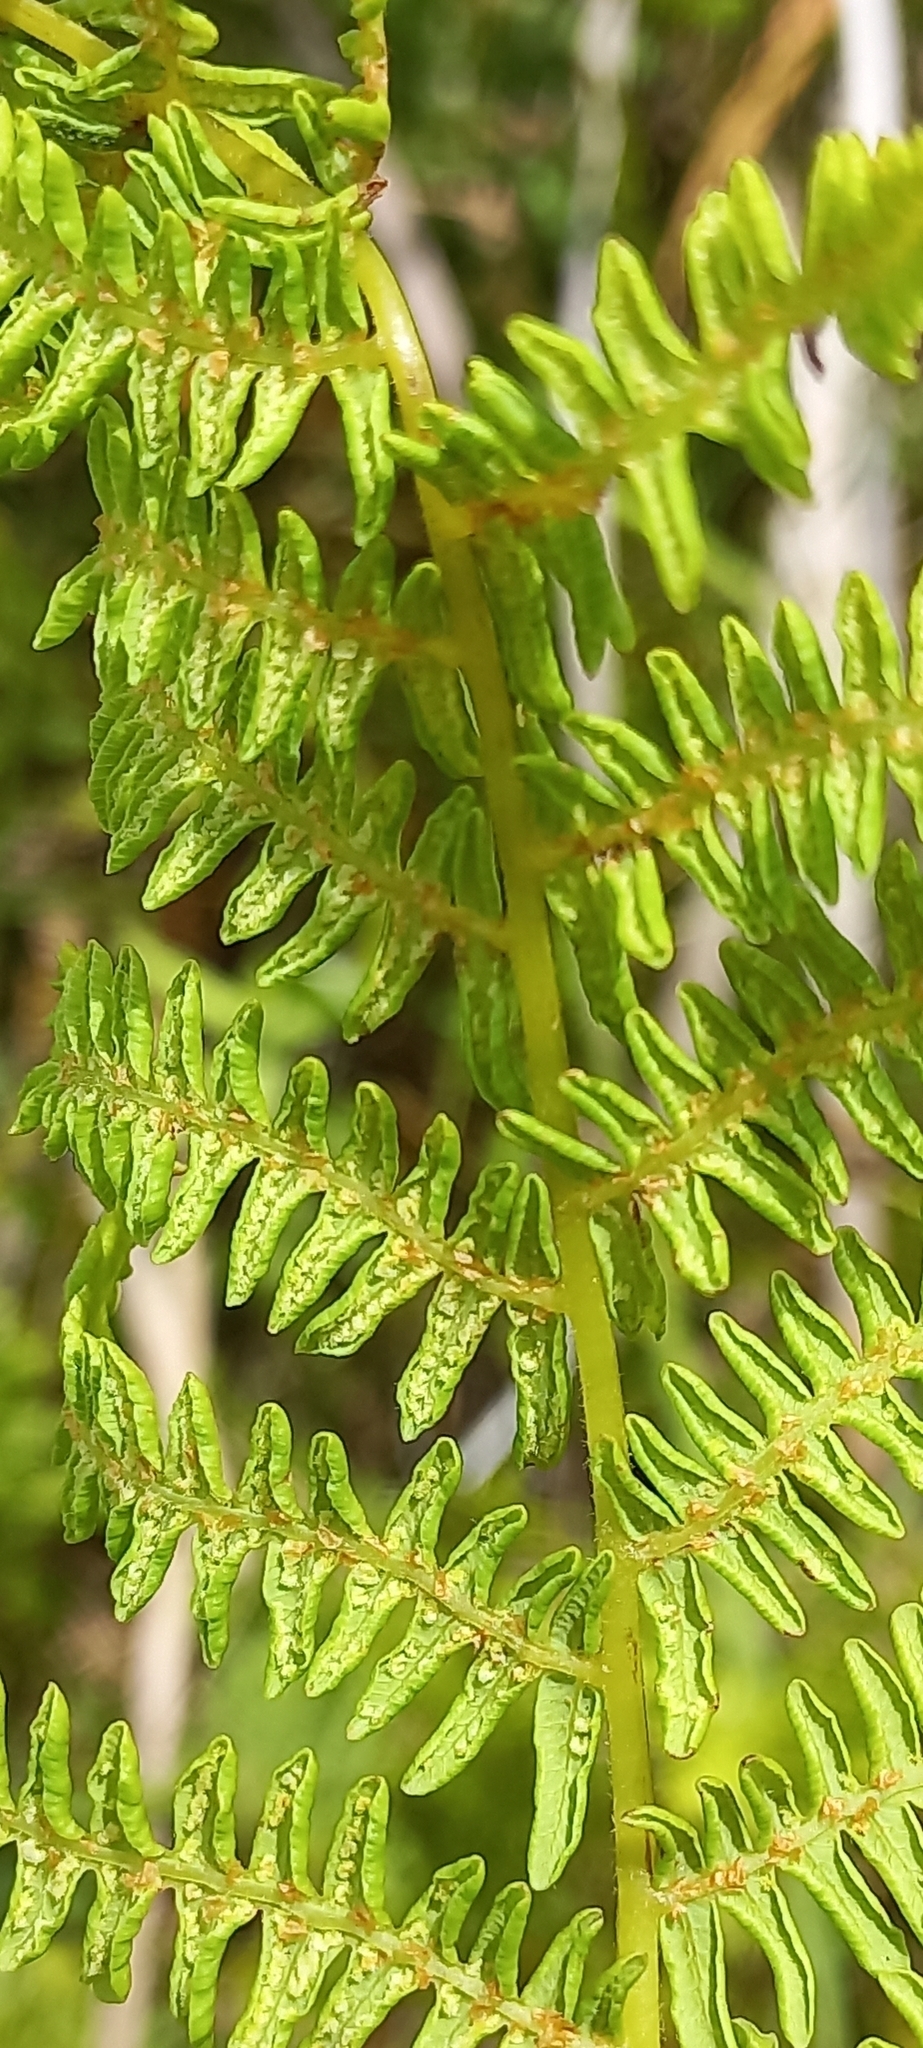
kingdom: Plantae
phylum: Tracheophyta
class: Polypodiopsida
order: Polypodiales
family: Thelypteridaceae
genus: Thelypteris
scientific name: Thelypteris confluens
